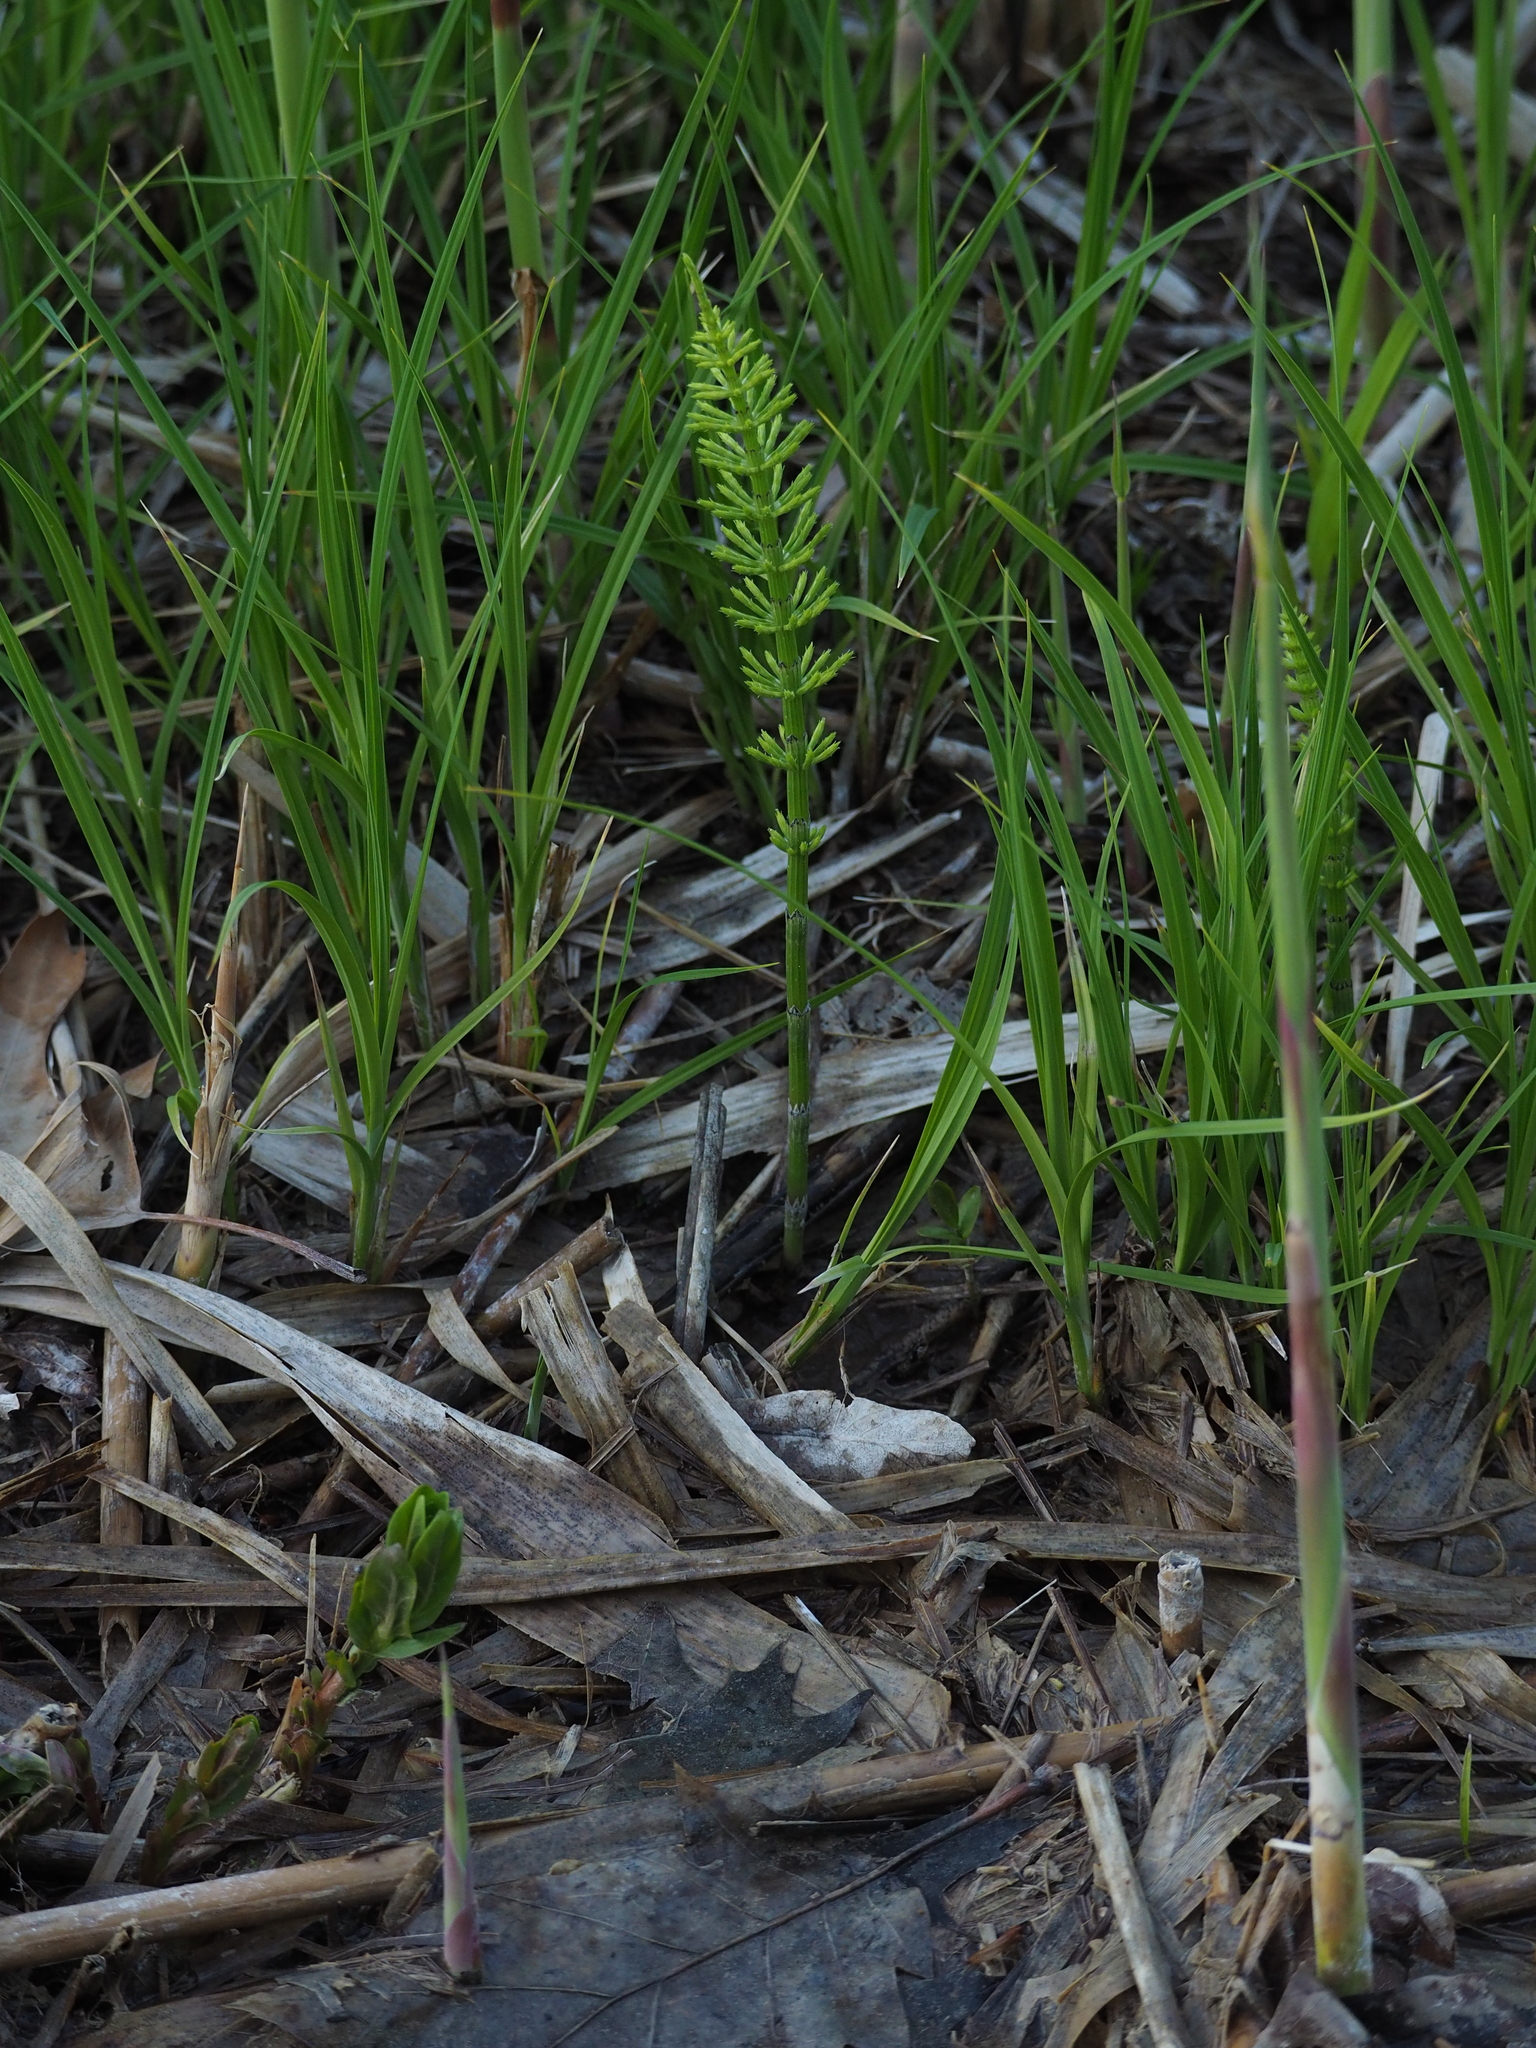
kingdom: Plantae
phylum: Tracheophyta
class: Polypodiopsida
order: Equisetales
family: Equisetaceae
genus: Equisetum
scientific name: Equisetum arvense
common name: Field horsetail
